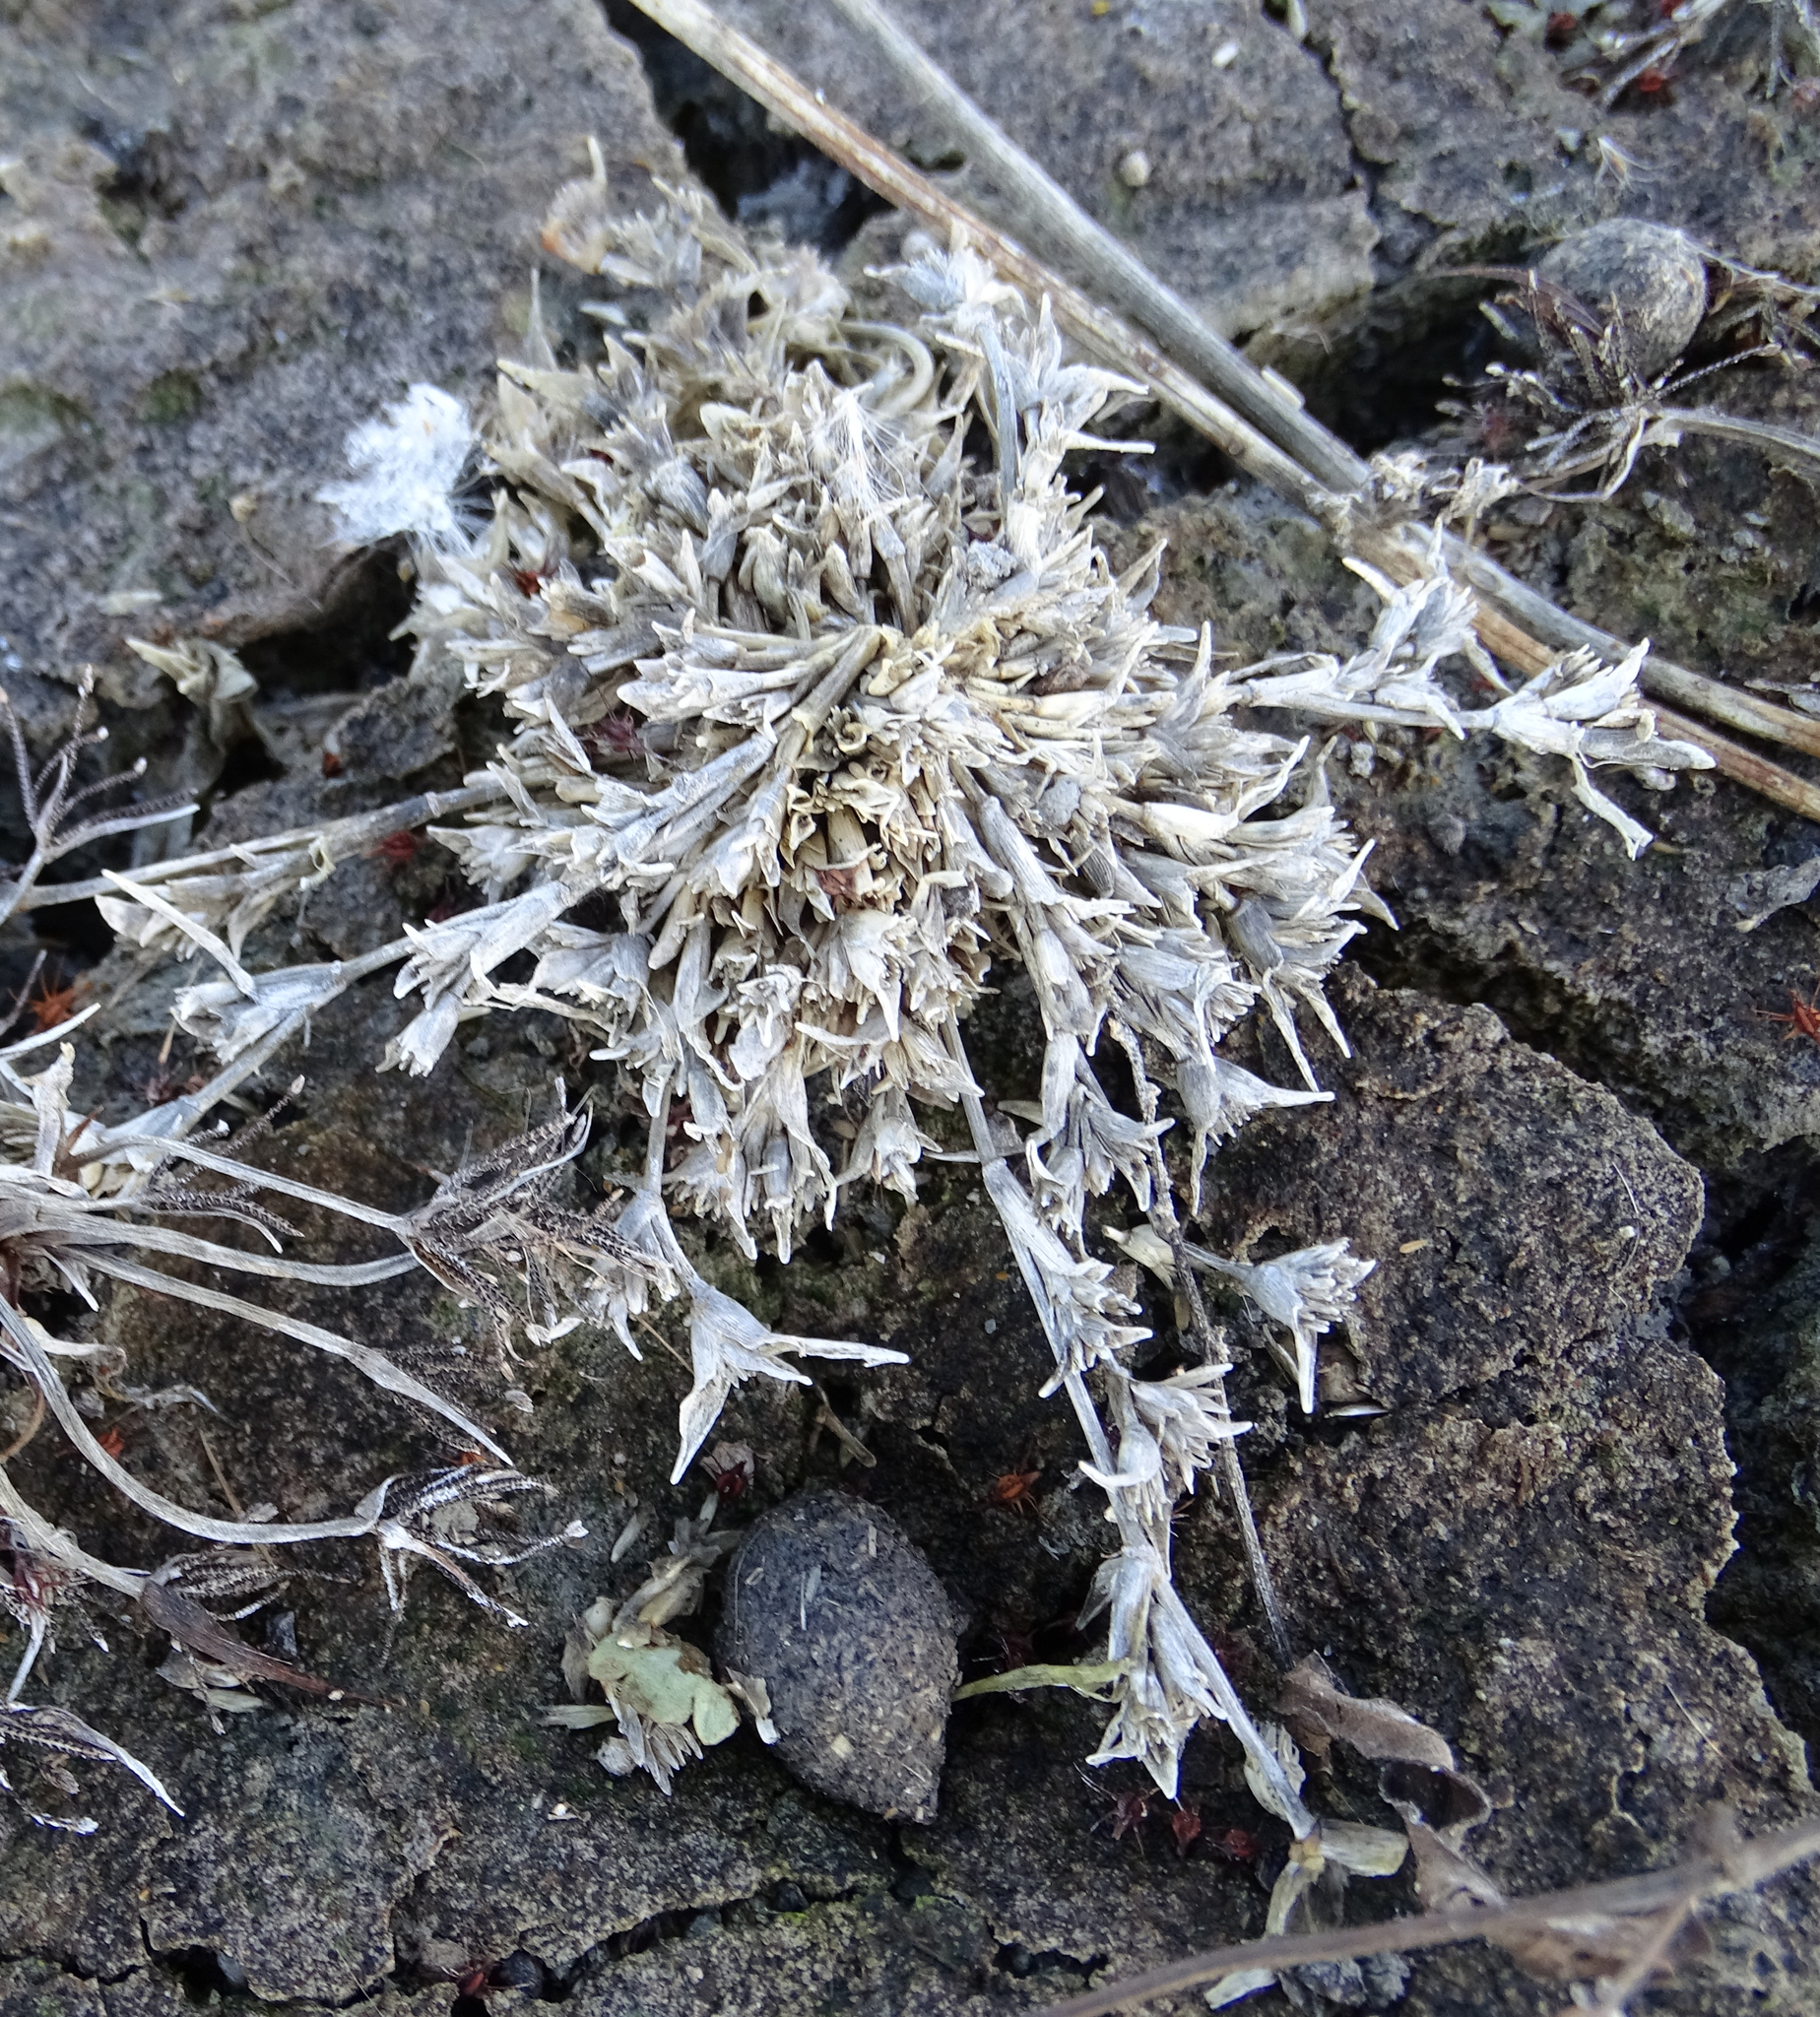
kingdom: Plantae
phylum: Tracheophyta
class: Liliopsida
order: Poales
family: Poaceae
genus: Sporobolus
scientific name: Sporobolus aculeatus
